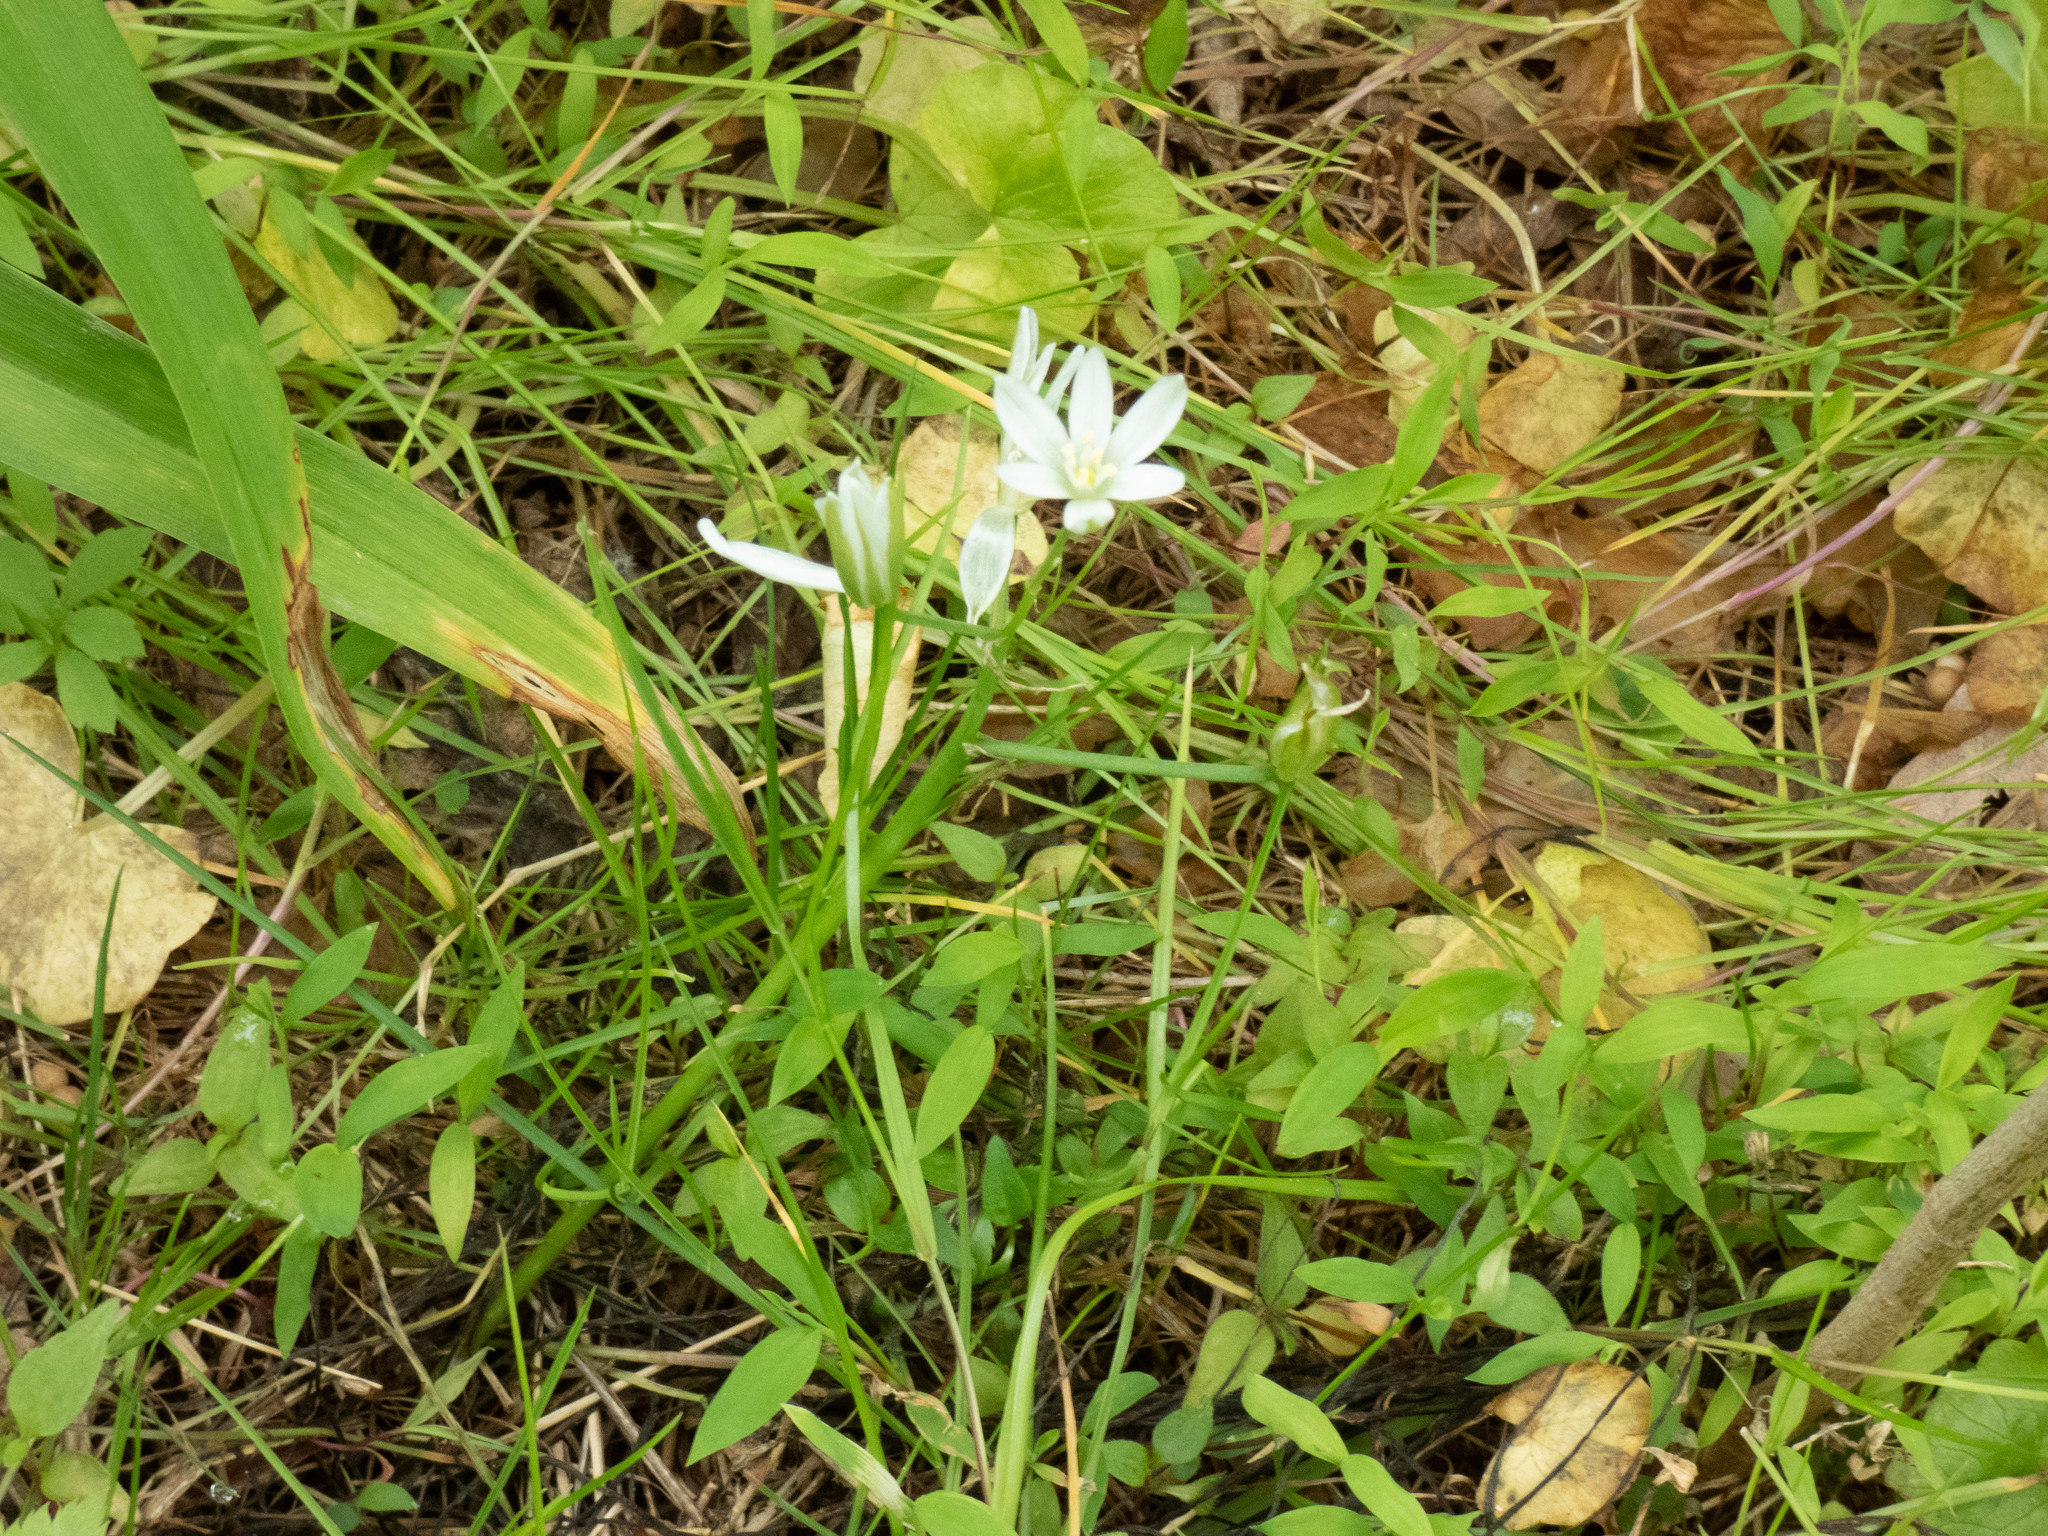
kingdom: Plantae
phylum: Tracheophyta
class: Liliopsida
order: Asparagales
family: Asparagaceae
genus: Ornithogalum
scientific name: Ornithogalum umbellatum
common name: Garden star-of-bethlehem
